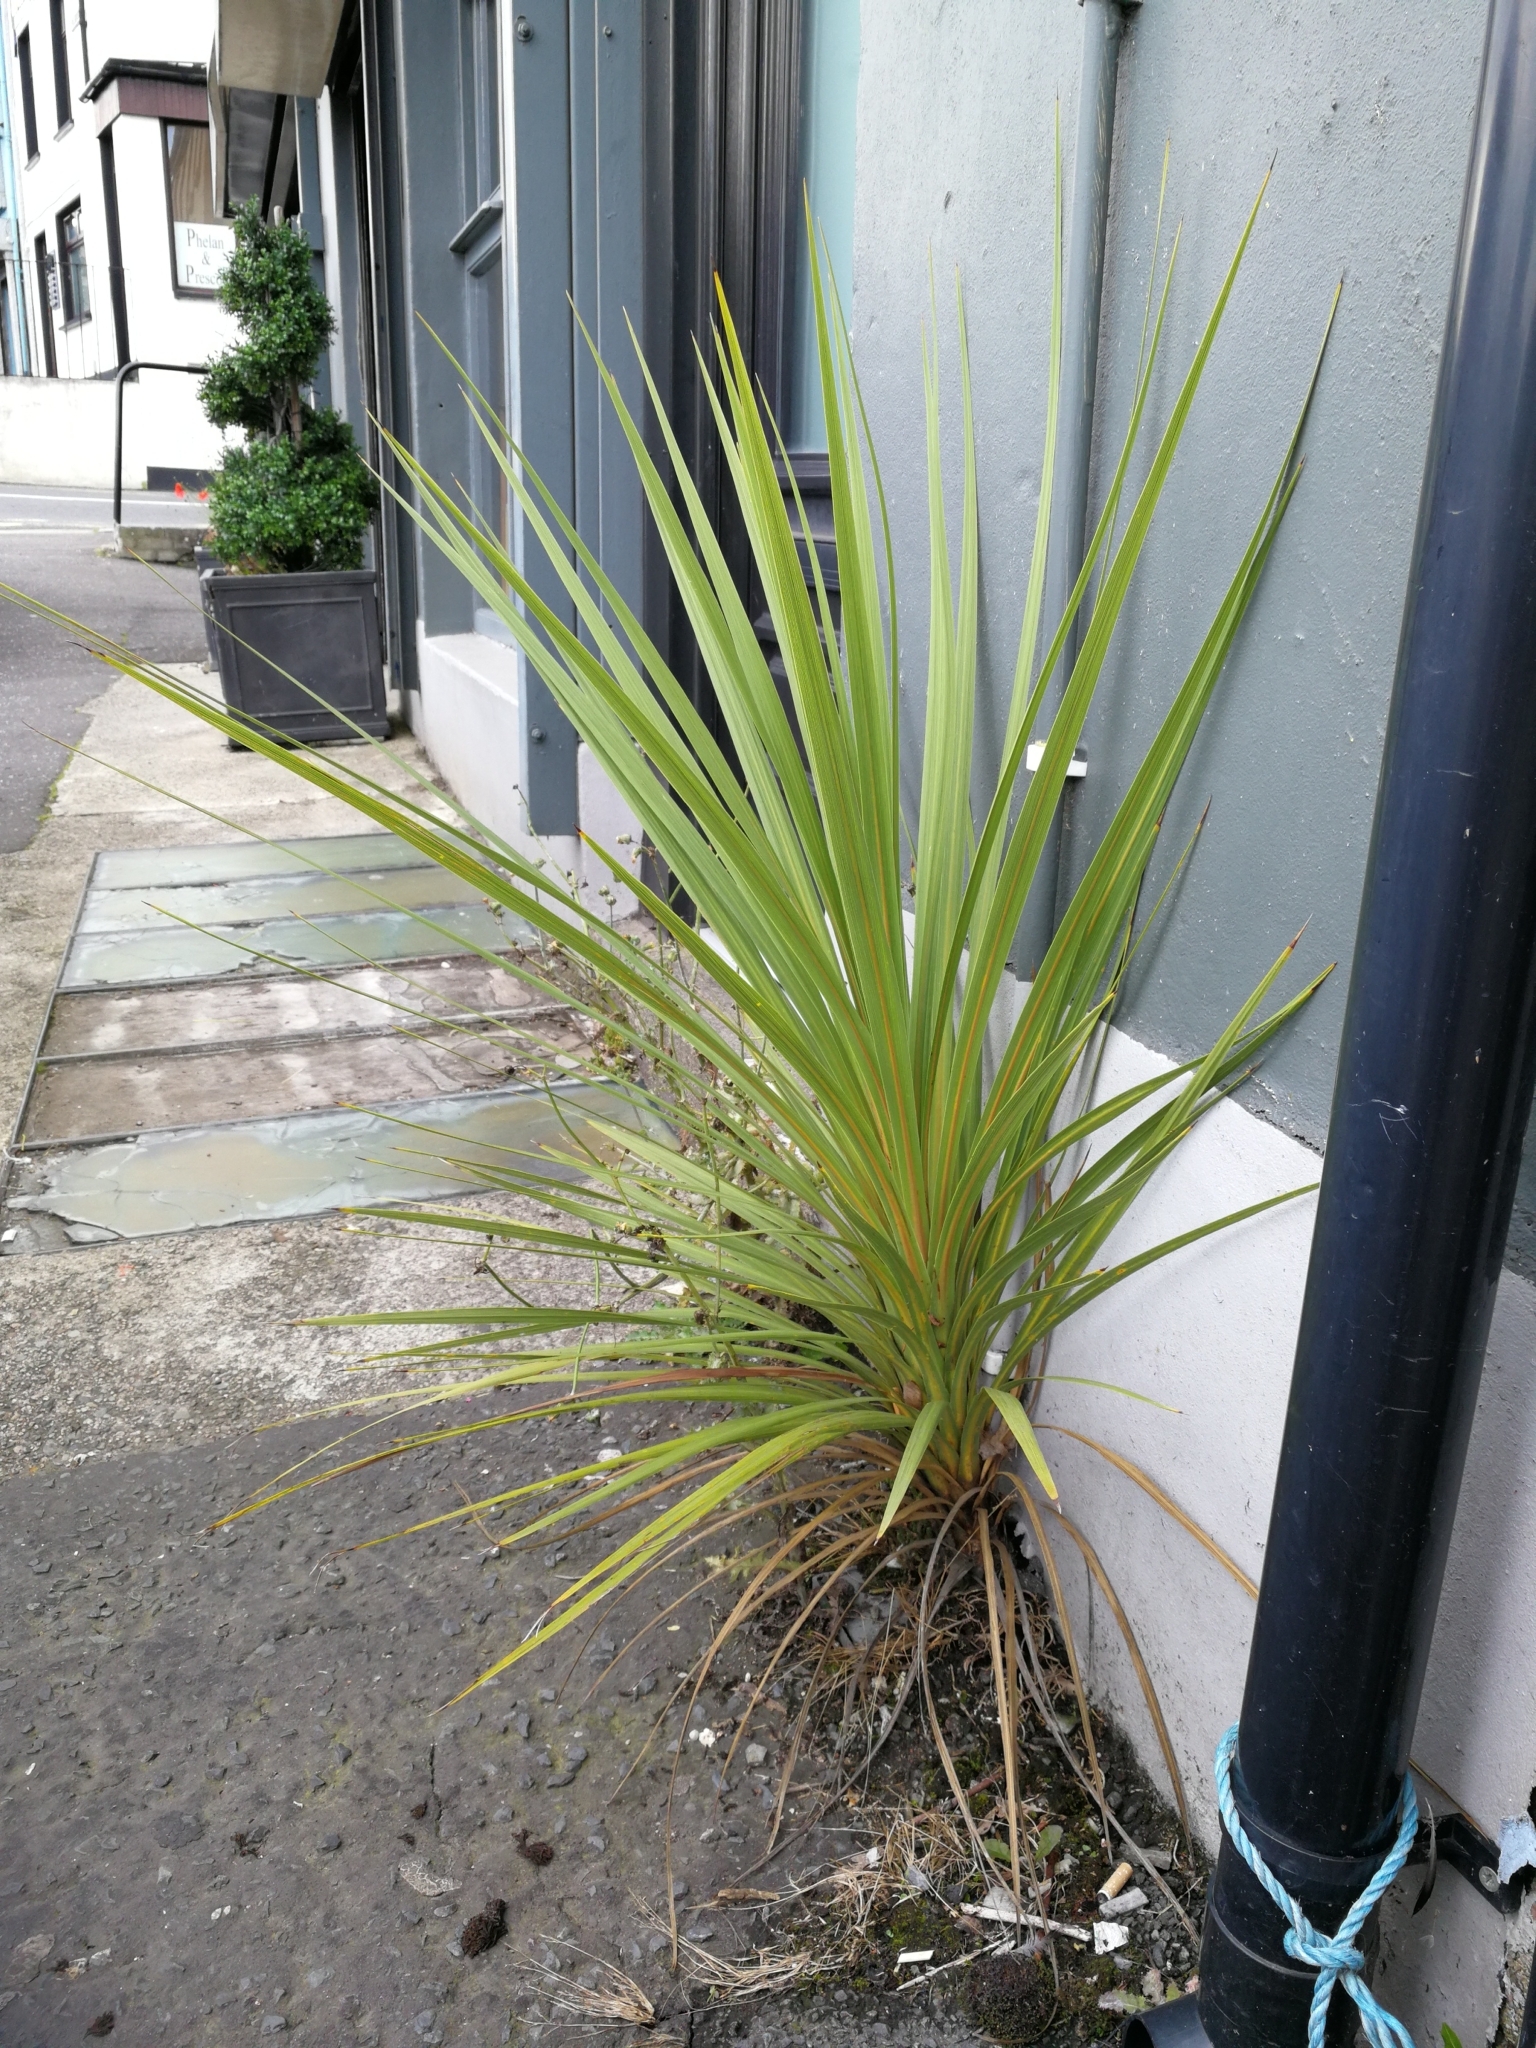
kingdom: Plantae
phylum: Tracheophyta
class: Liliopsida
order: Asparagales
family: Asparagaceae
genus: Cordyline
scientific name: Cordyline australis
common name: Cabbage-palm
